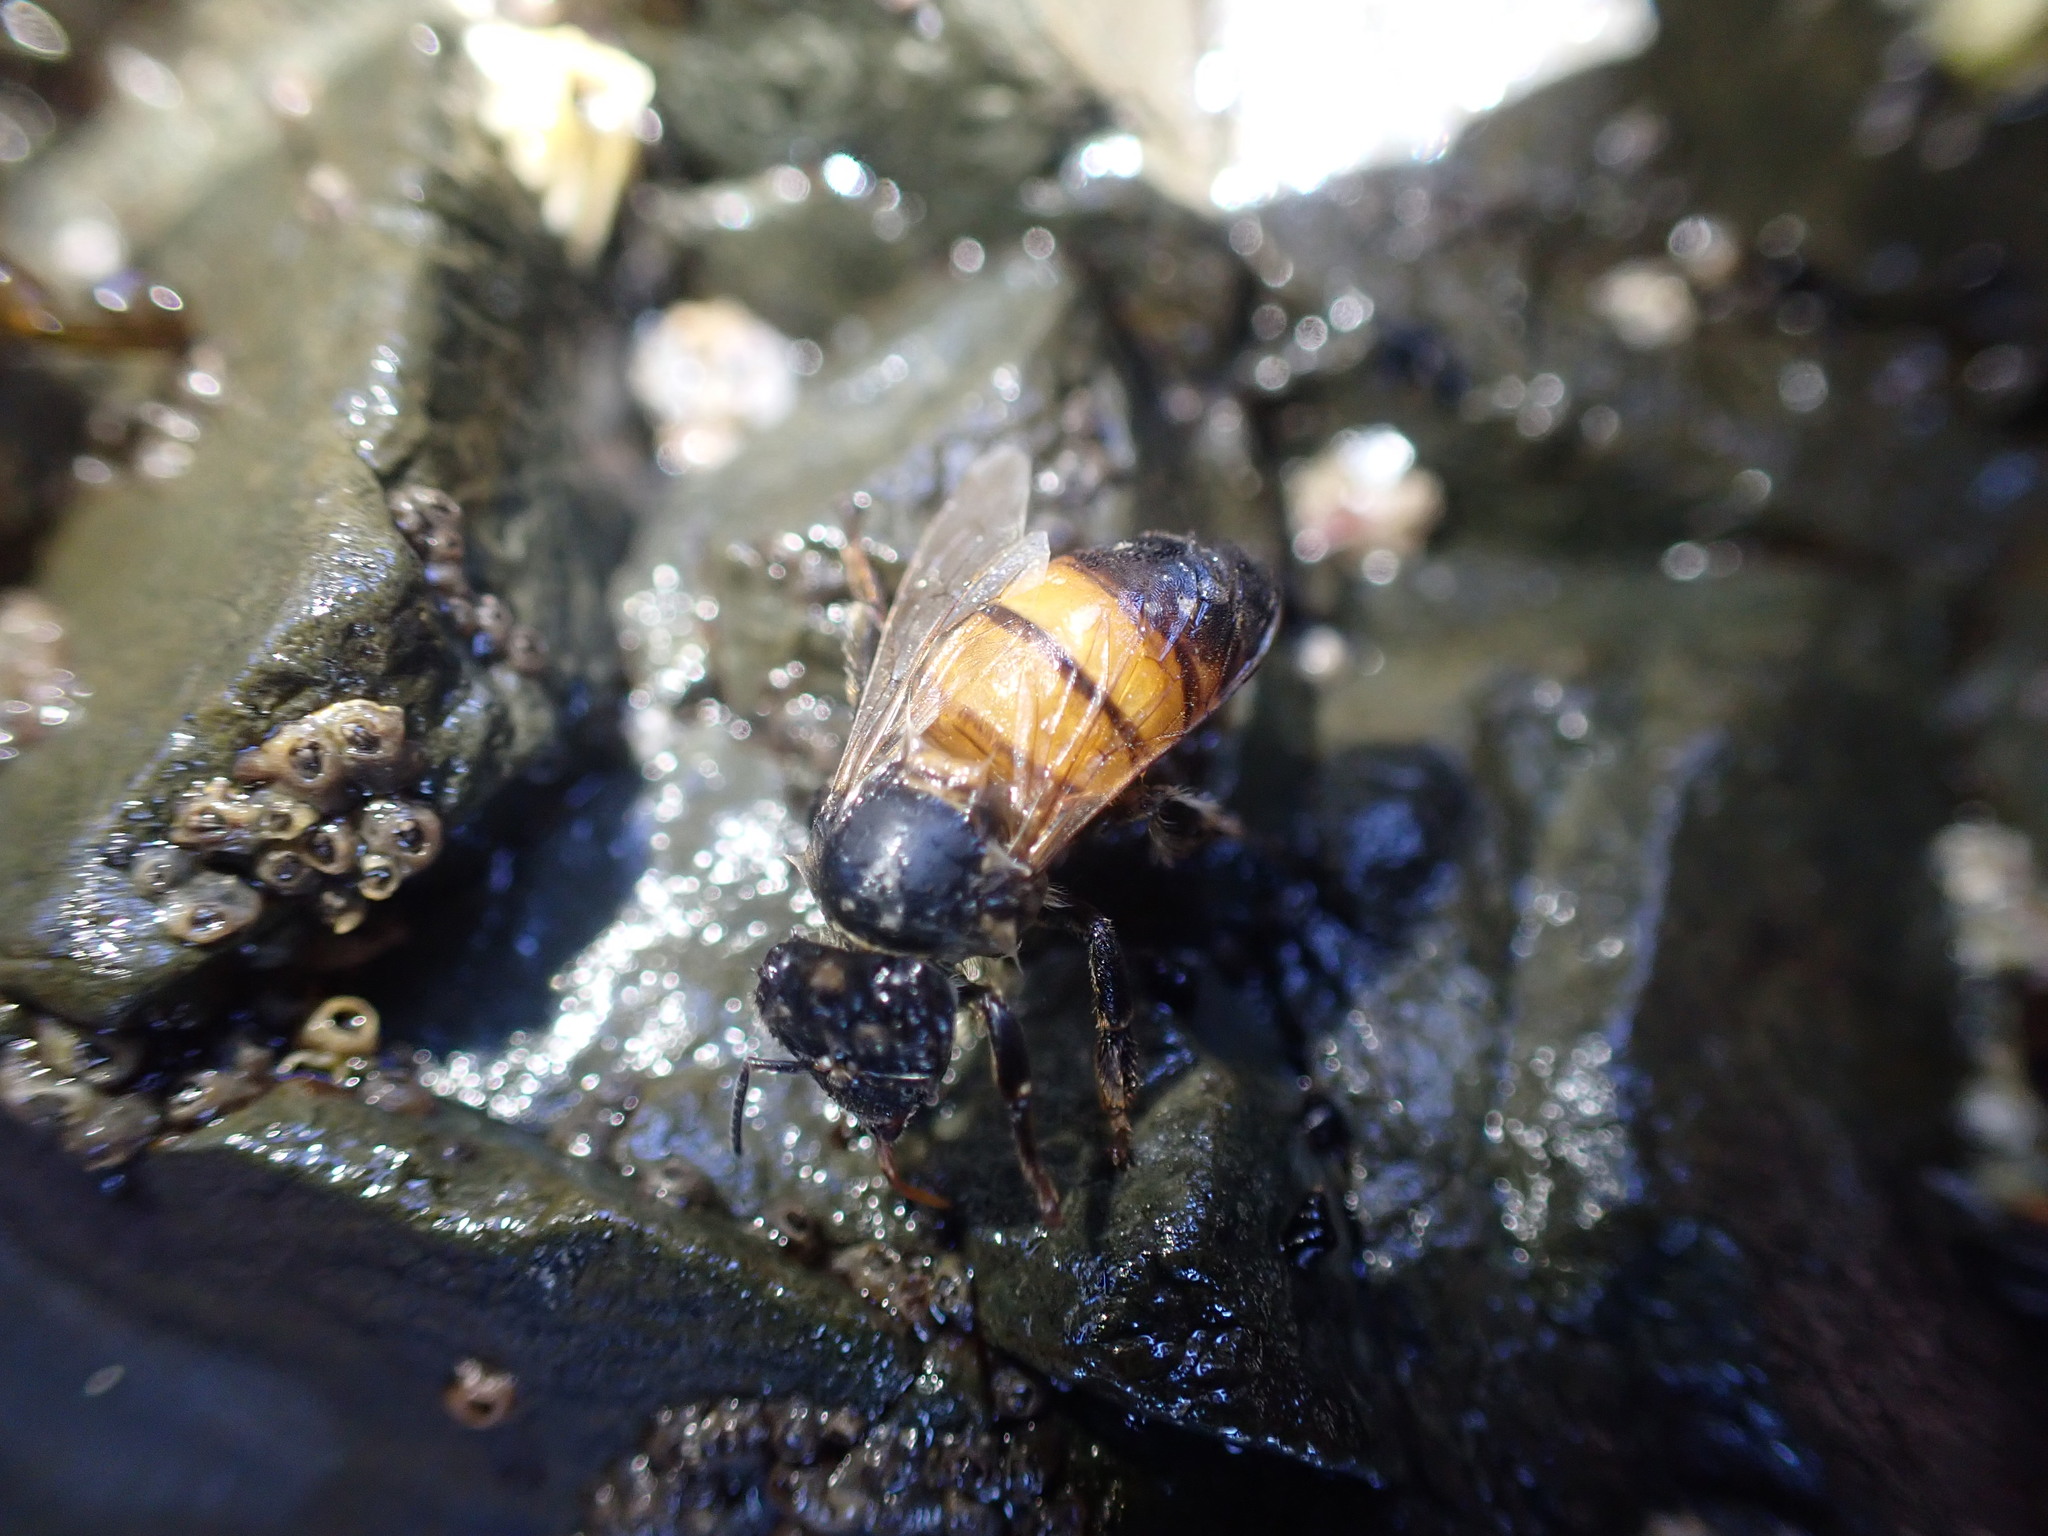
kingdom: Animalia
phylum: Arthropoda
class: Insecta
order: Hymenoptera
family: Apidae
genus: Apis
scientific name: Apis mellifera
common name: Honey bee
